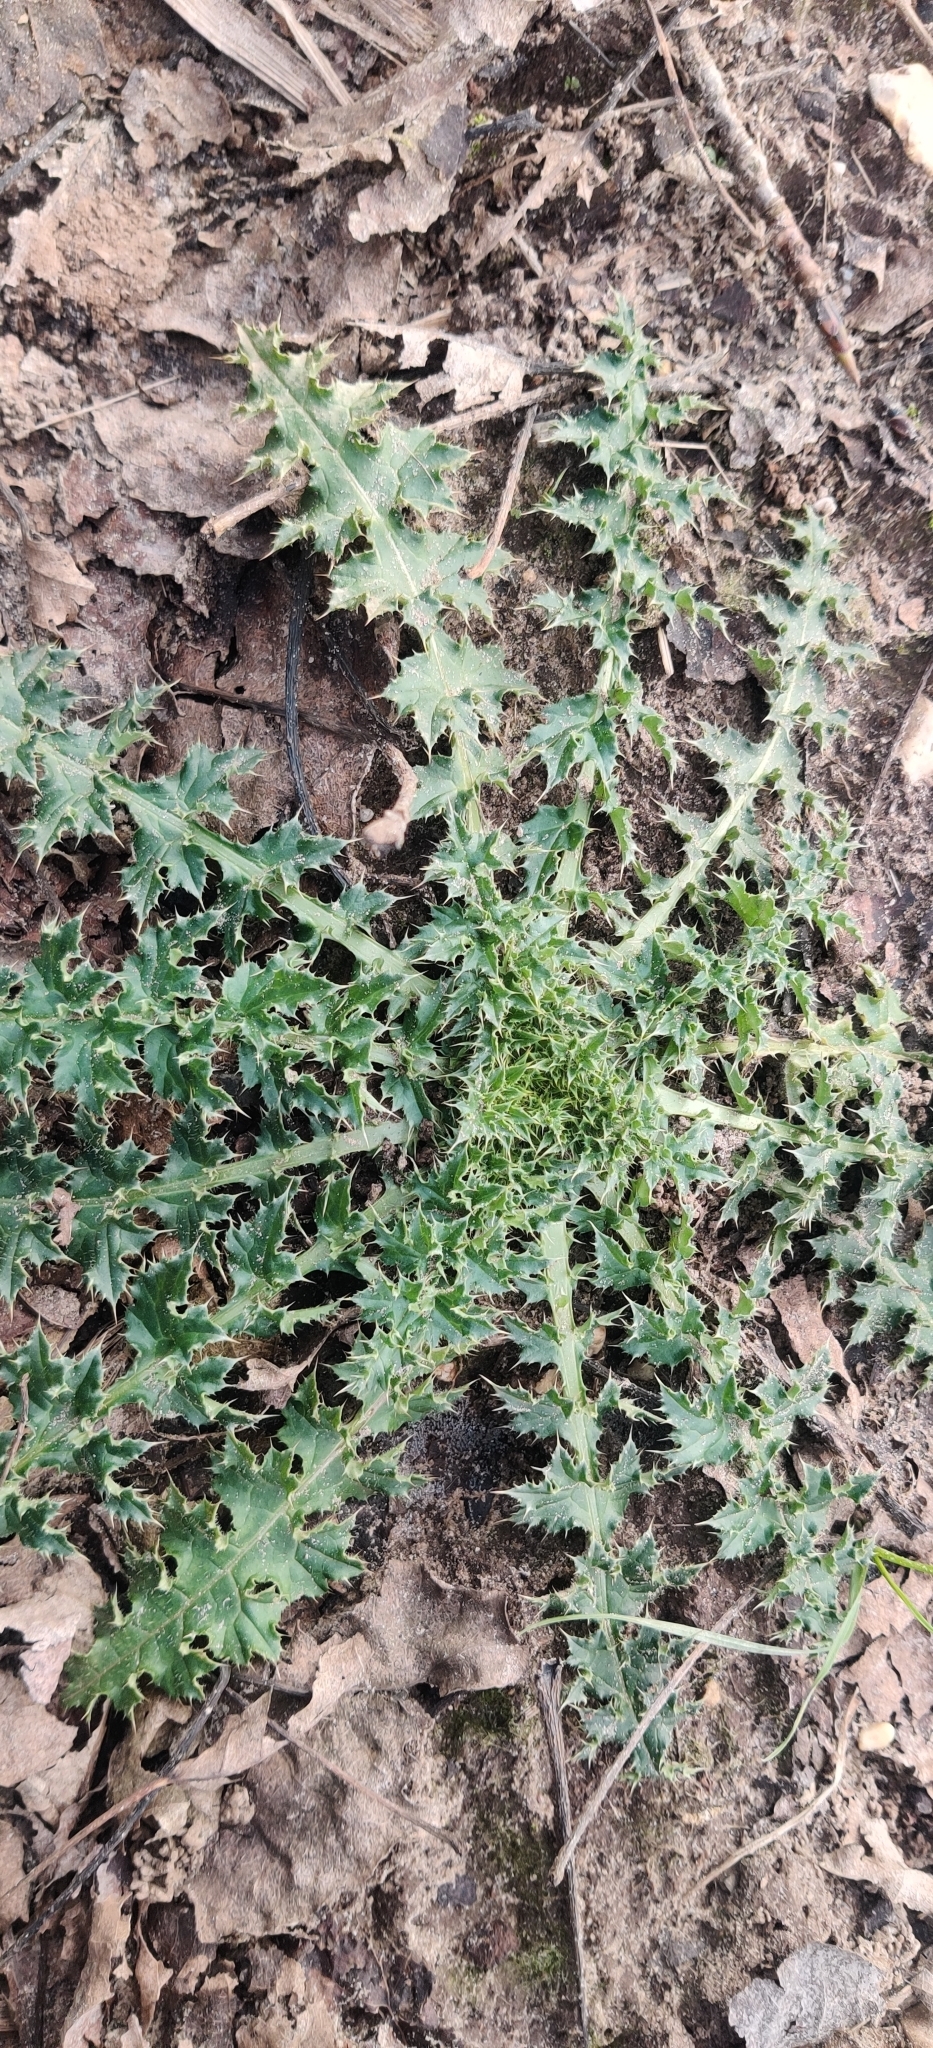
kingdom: Plantae
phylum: Tracheophyta
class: Magnoliopsida
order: Asterales
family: Asteraceae
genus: Carduus
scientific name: Carduus crispus
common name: Welted thistle
